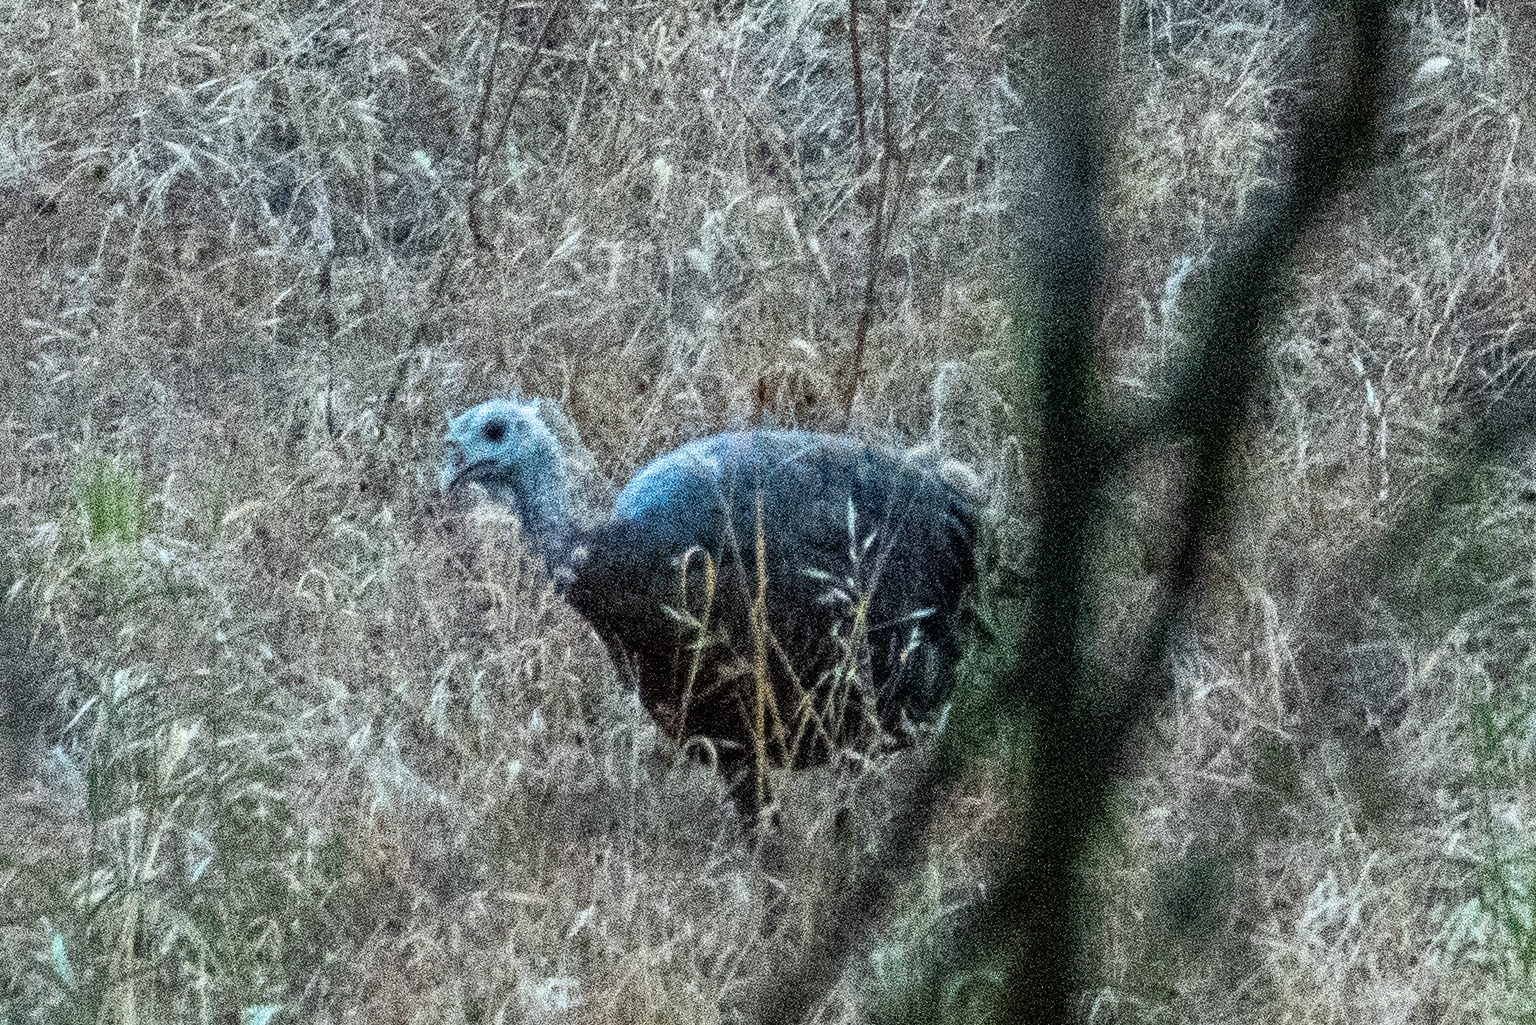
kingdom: Animalia
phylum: Chordata
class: Aves
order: Galliformes
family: Phasianidae
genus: Meleagris
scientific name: Meleagris gallopavo
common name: Wild turkey
